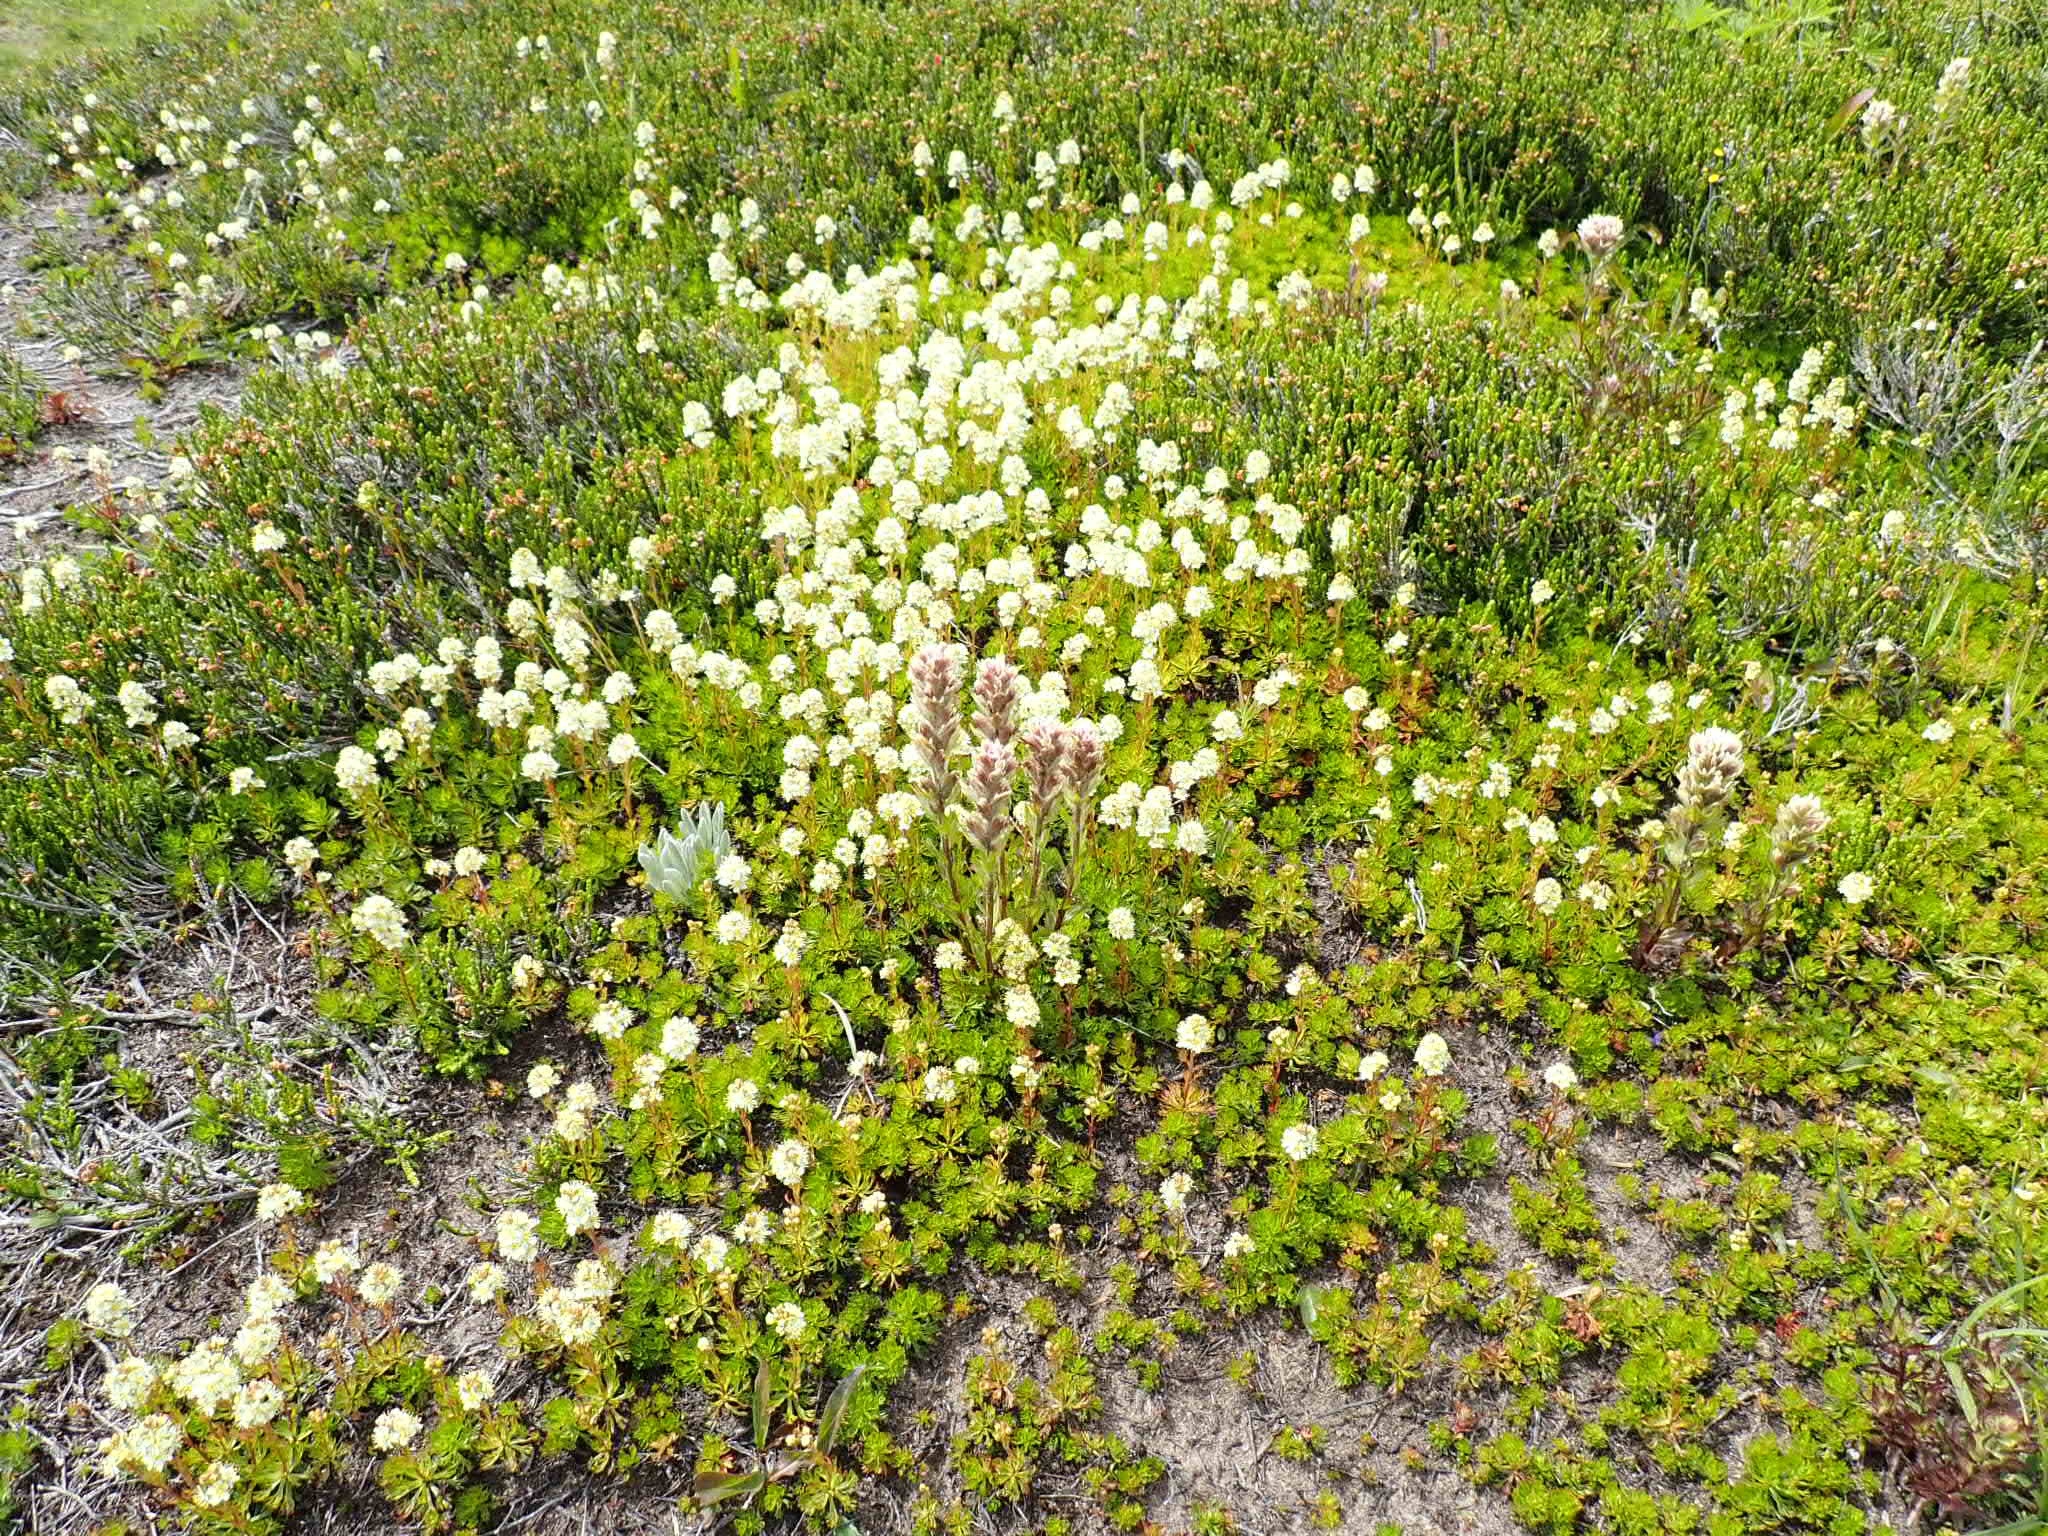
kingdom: Plantae
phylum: Tracheophyta
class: Magnoliopsida
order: Rosales
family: Rosaceae
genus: Luetkea
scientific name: Luetkea pectinata
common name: Partridgefoot
